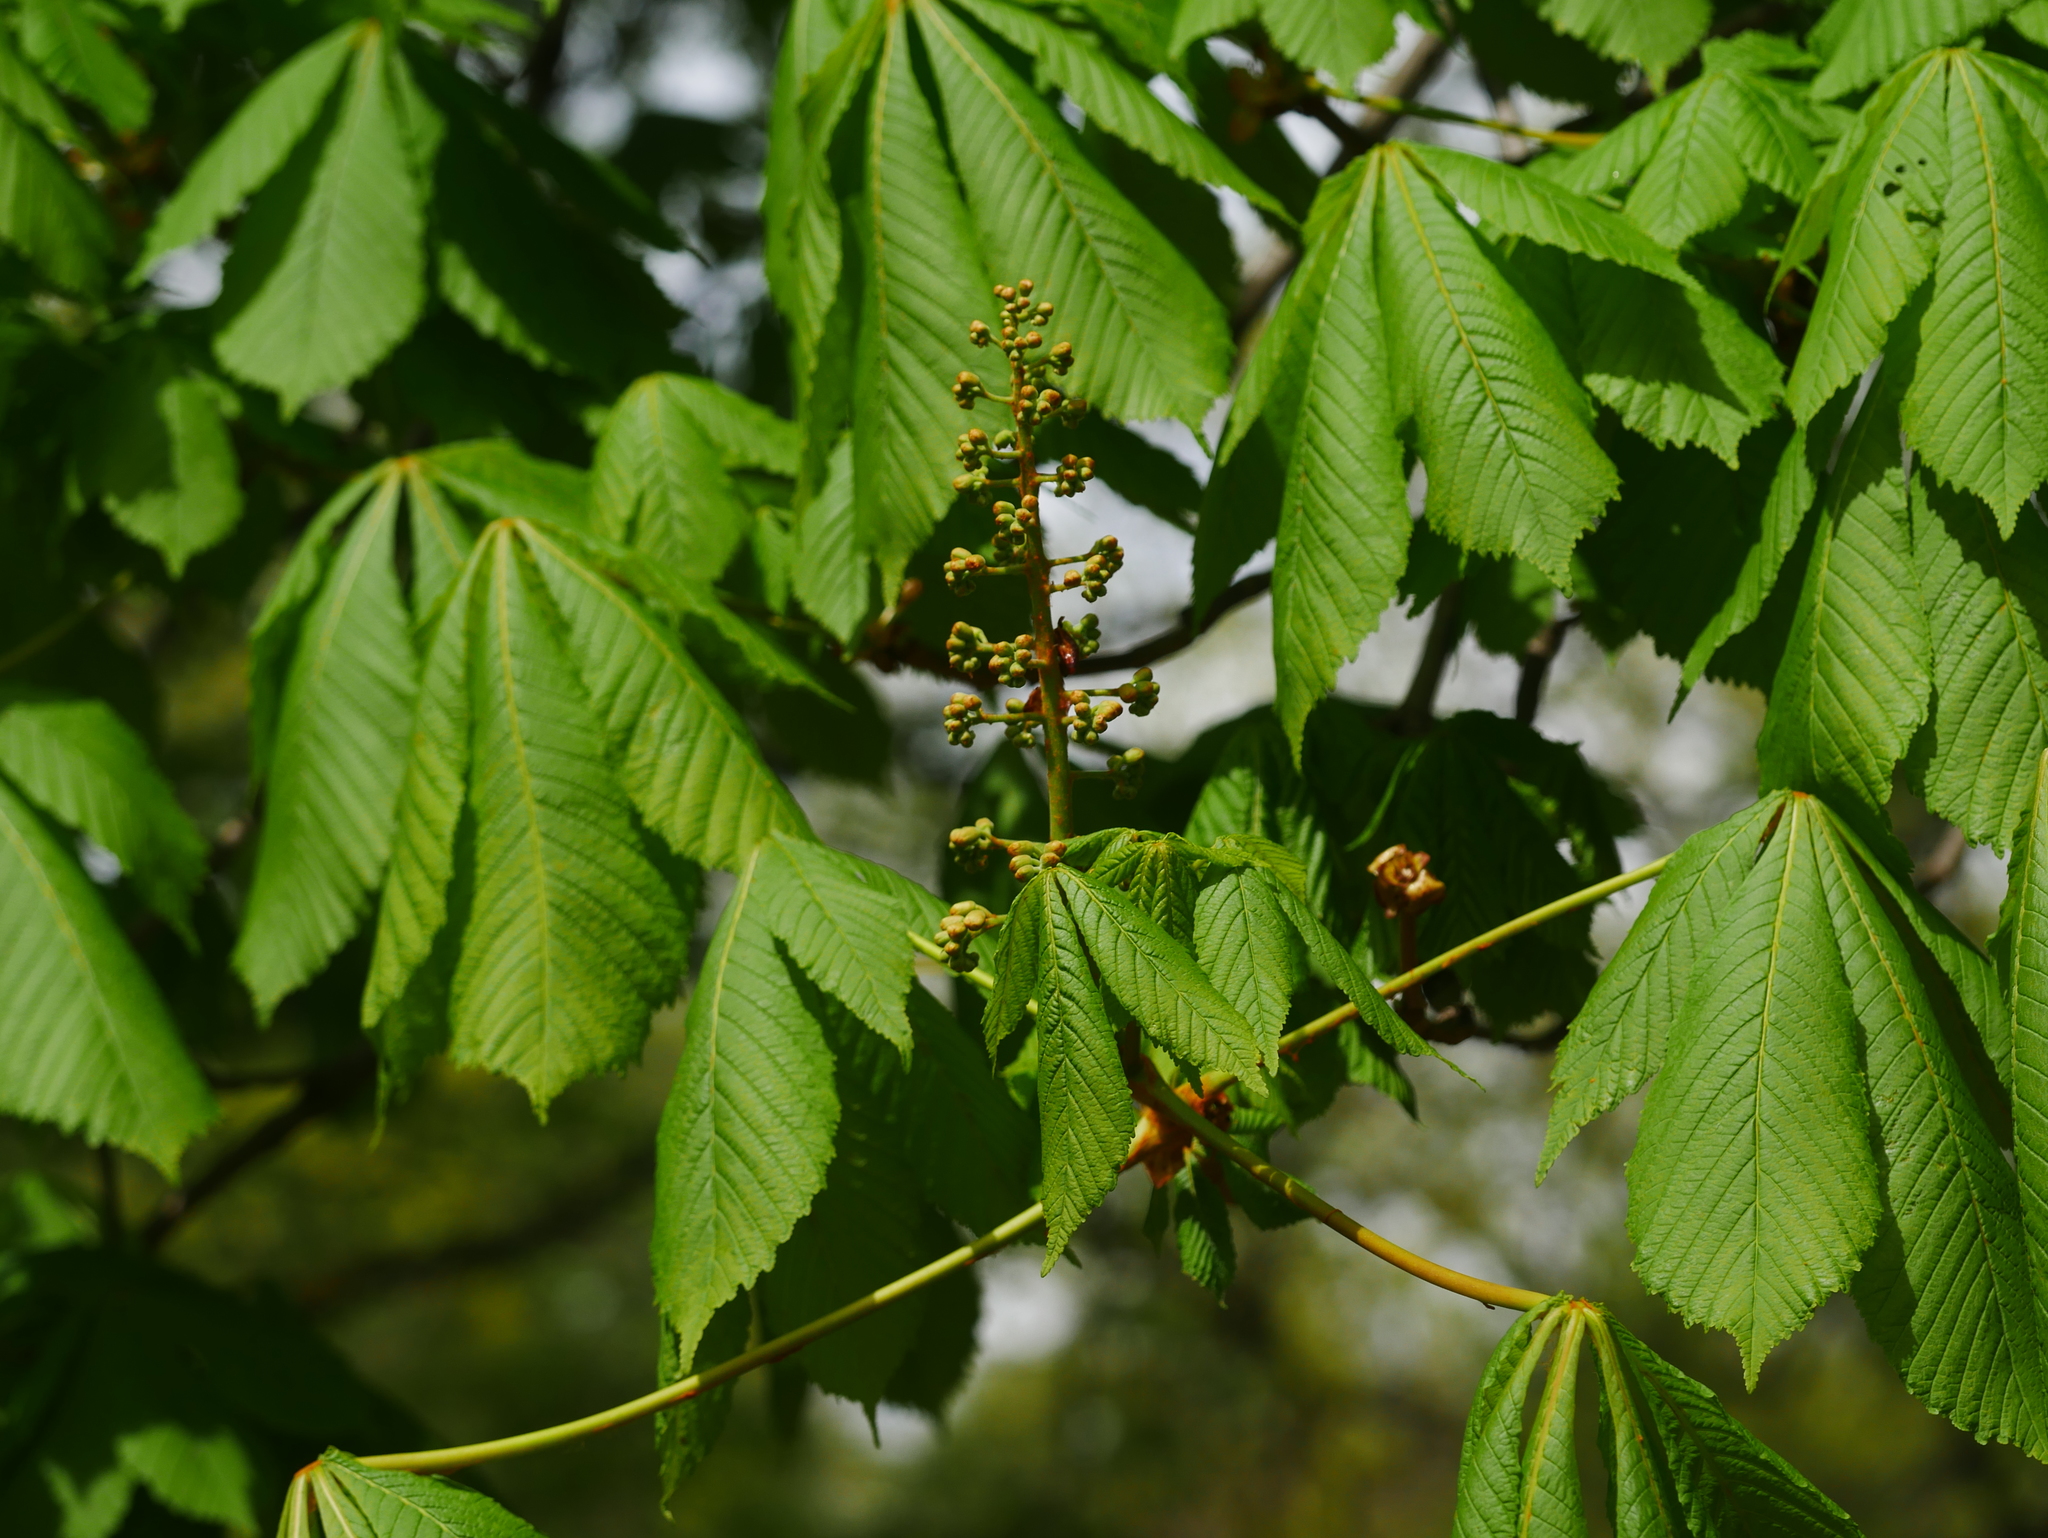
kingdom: Plantae
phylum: Tracheophyta
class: Magnoliopsida
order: Sapindales
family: Sapindaceae
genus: Aesculus
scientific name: Aesculus hippocastanum
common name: Horse-chestnut
